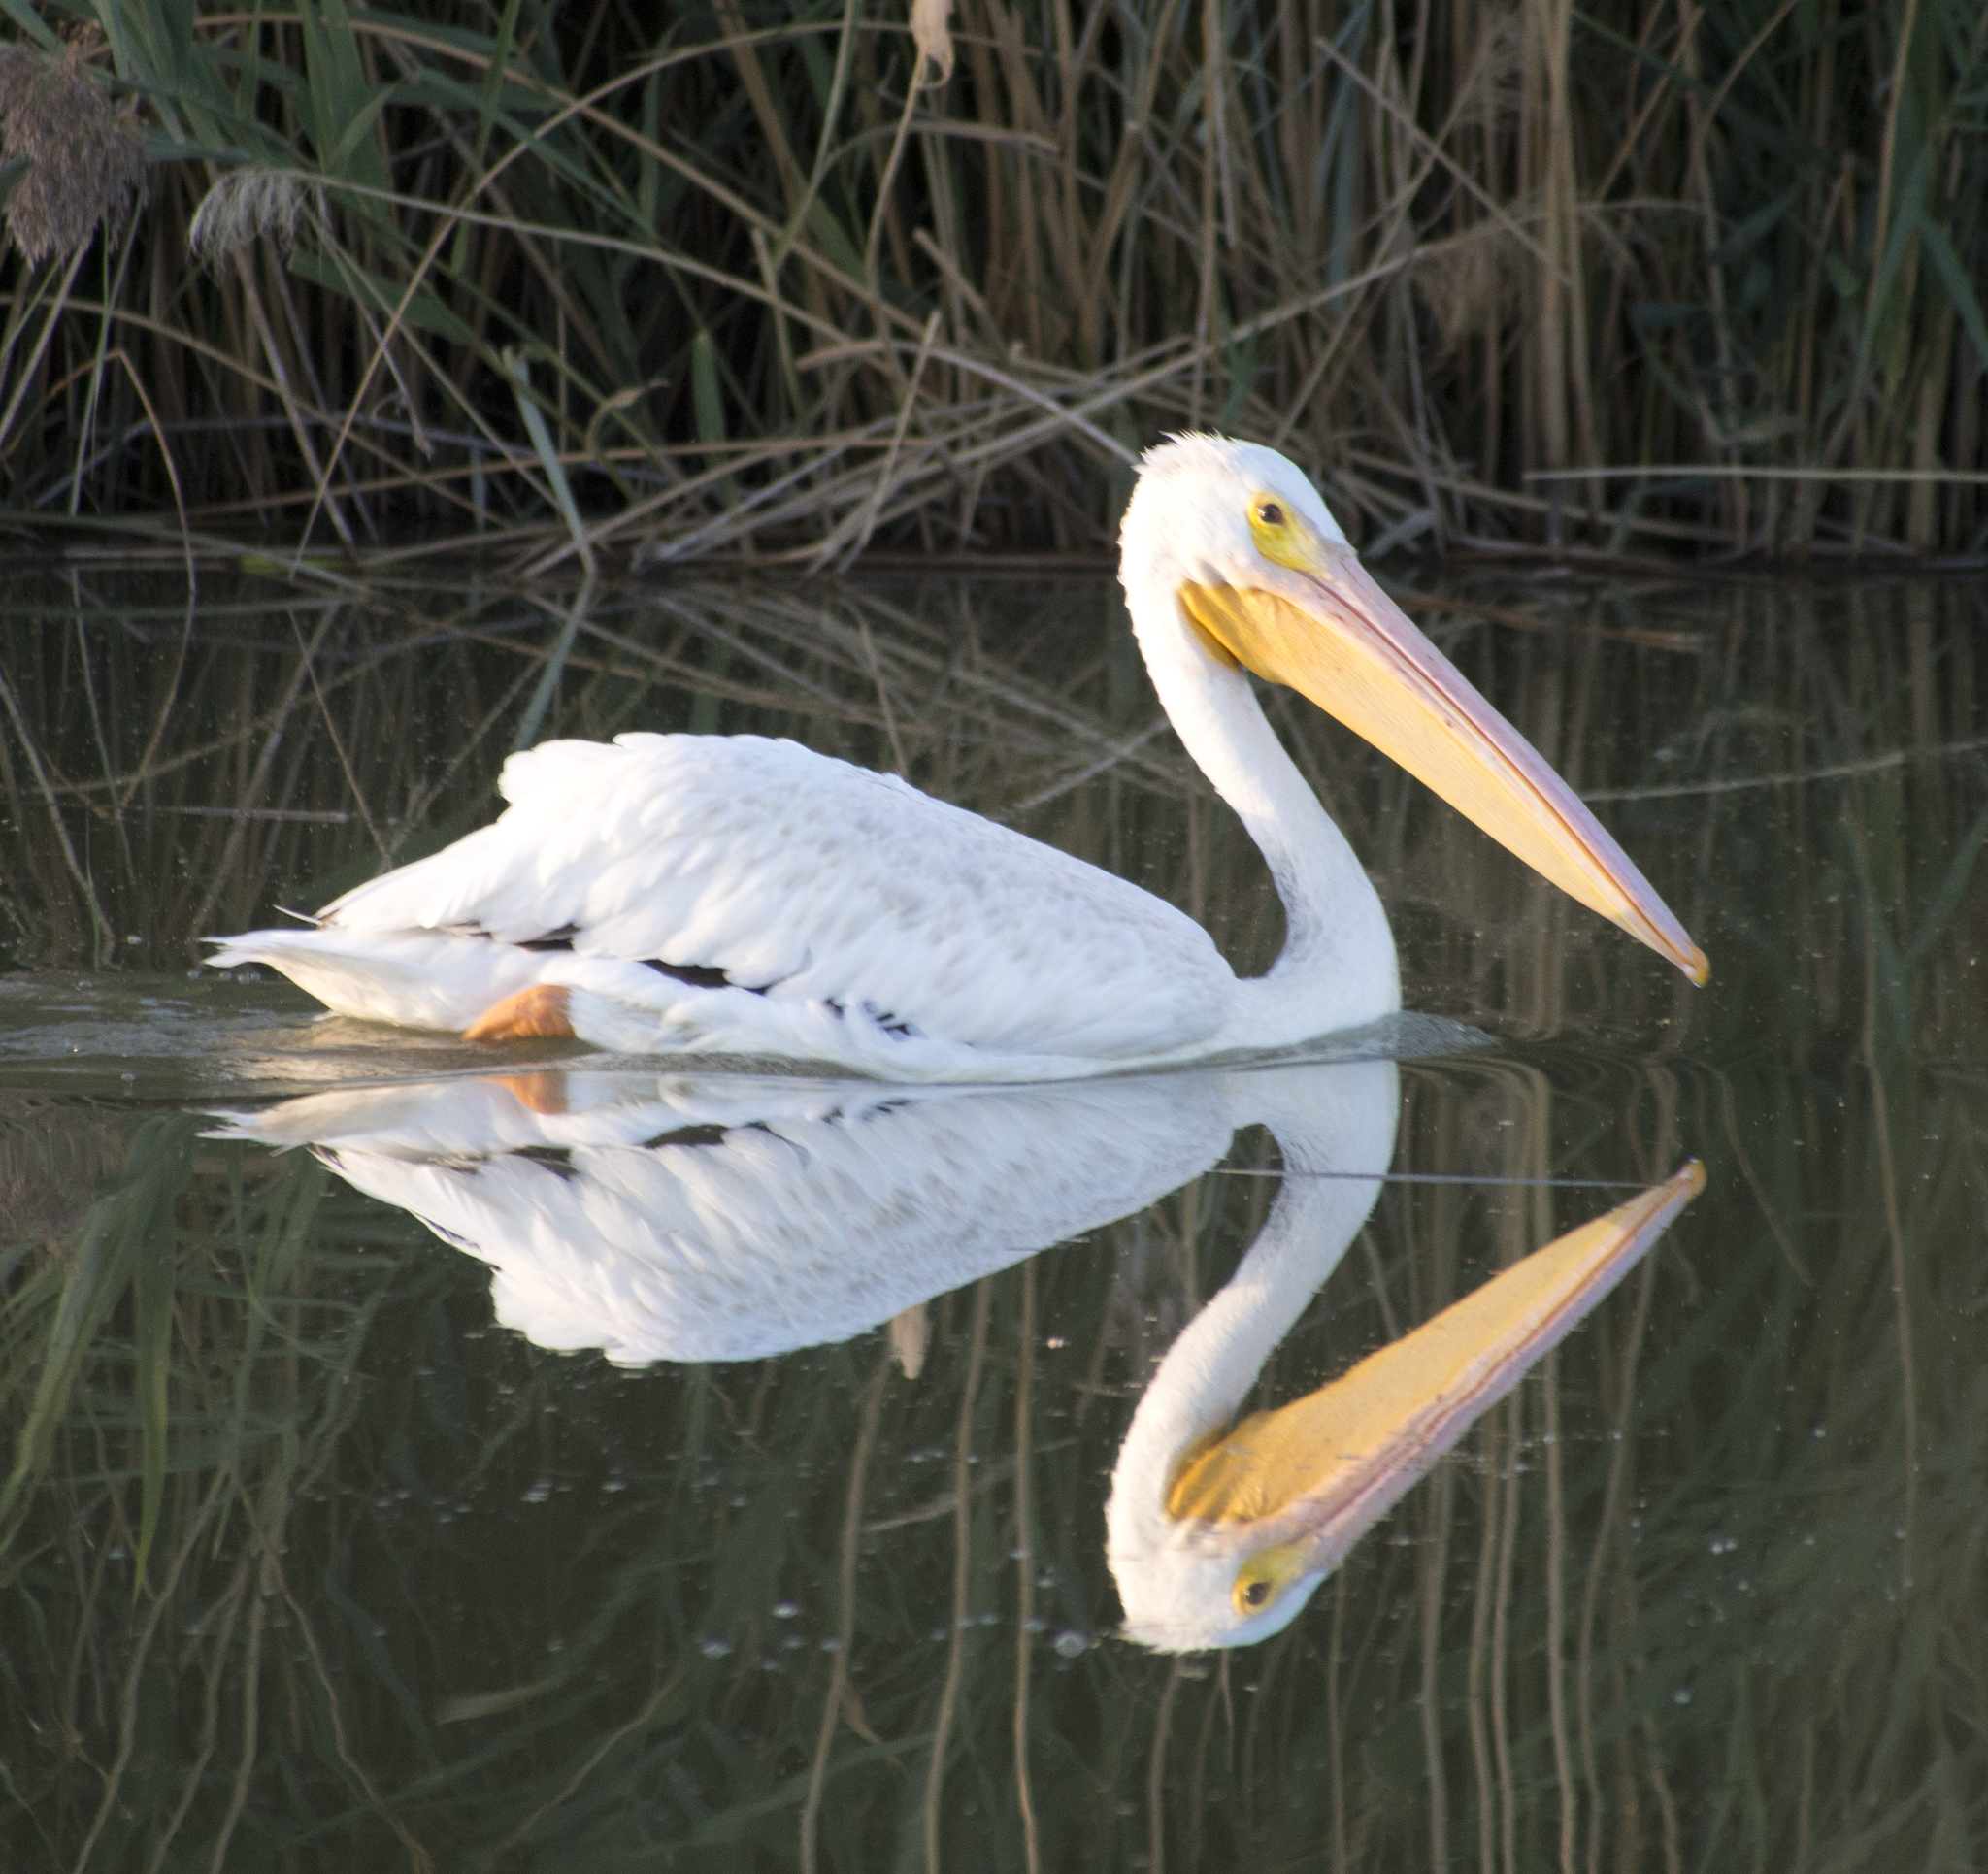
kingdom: Animalia
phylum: Chordata
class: Aves
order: Pelecaniformes
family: Pelecanidae
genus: Pelecanus
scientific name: Pelecanus erythrorhynchos
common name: American white pelican
